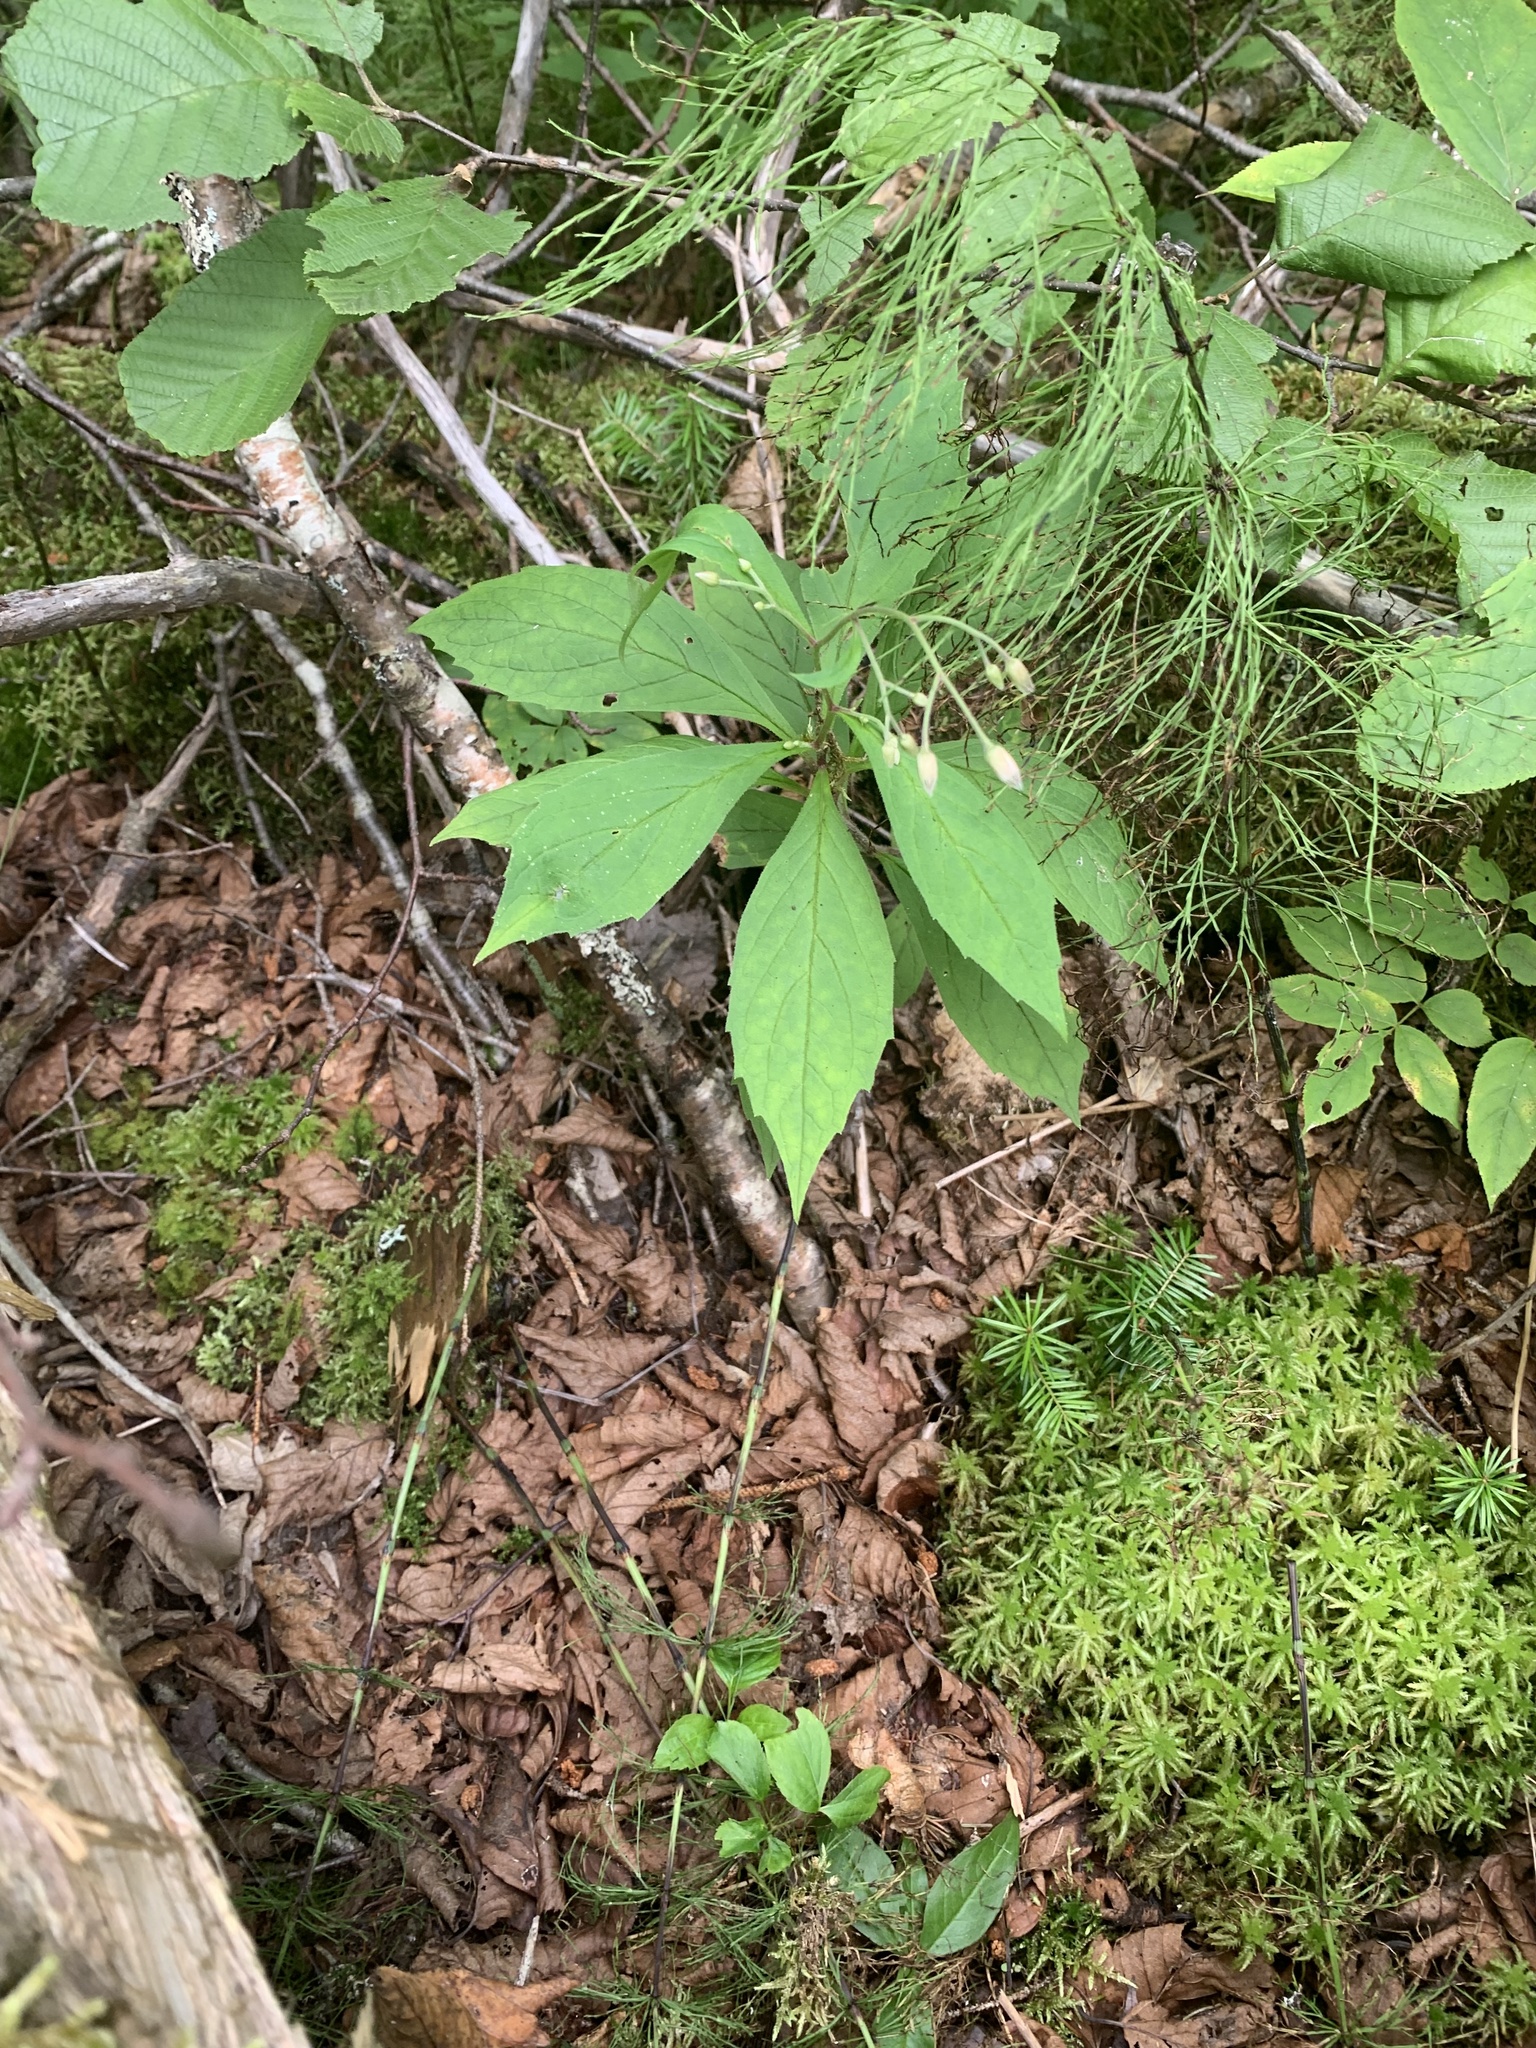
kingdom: Plantae
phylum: Tracheophyta
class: Magnoliopsida
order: Asterales
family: Asteraceae
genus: Oclemena
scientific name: Oclemena acuminata
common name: Mountain aster
